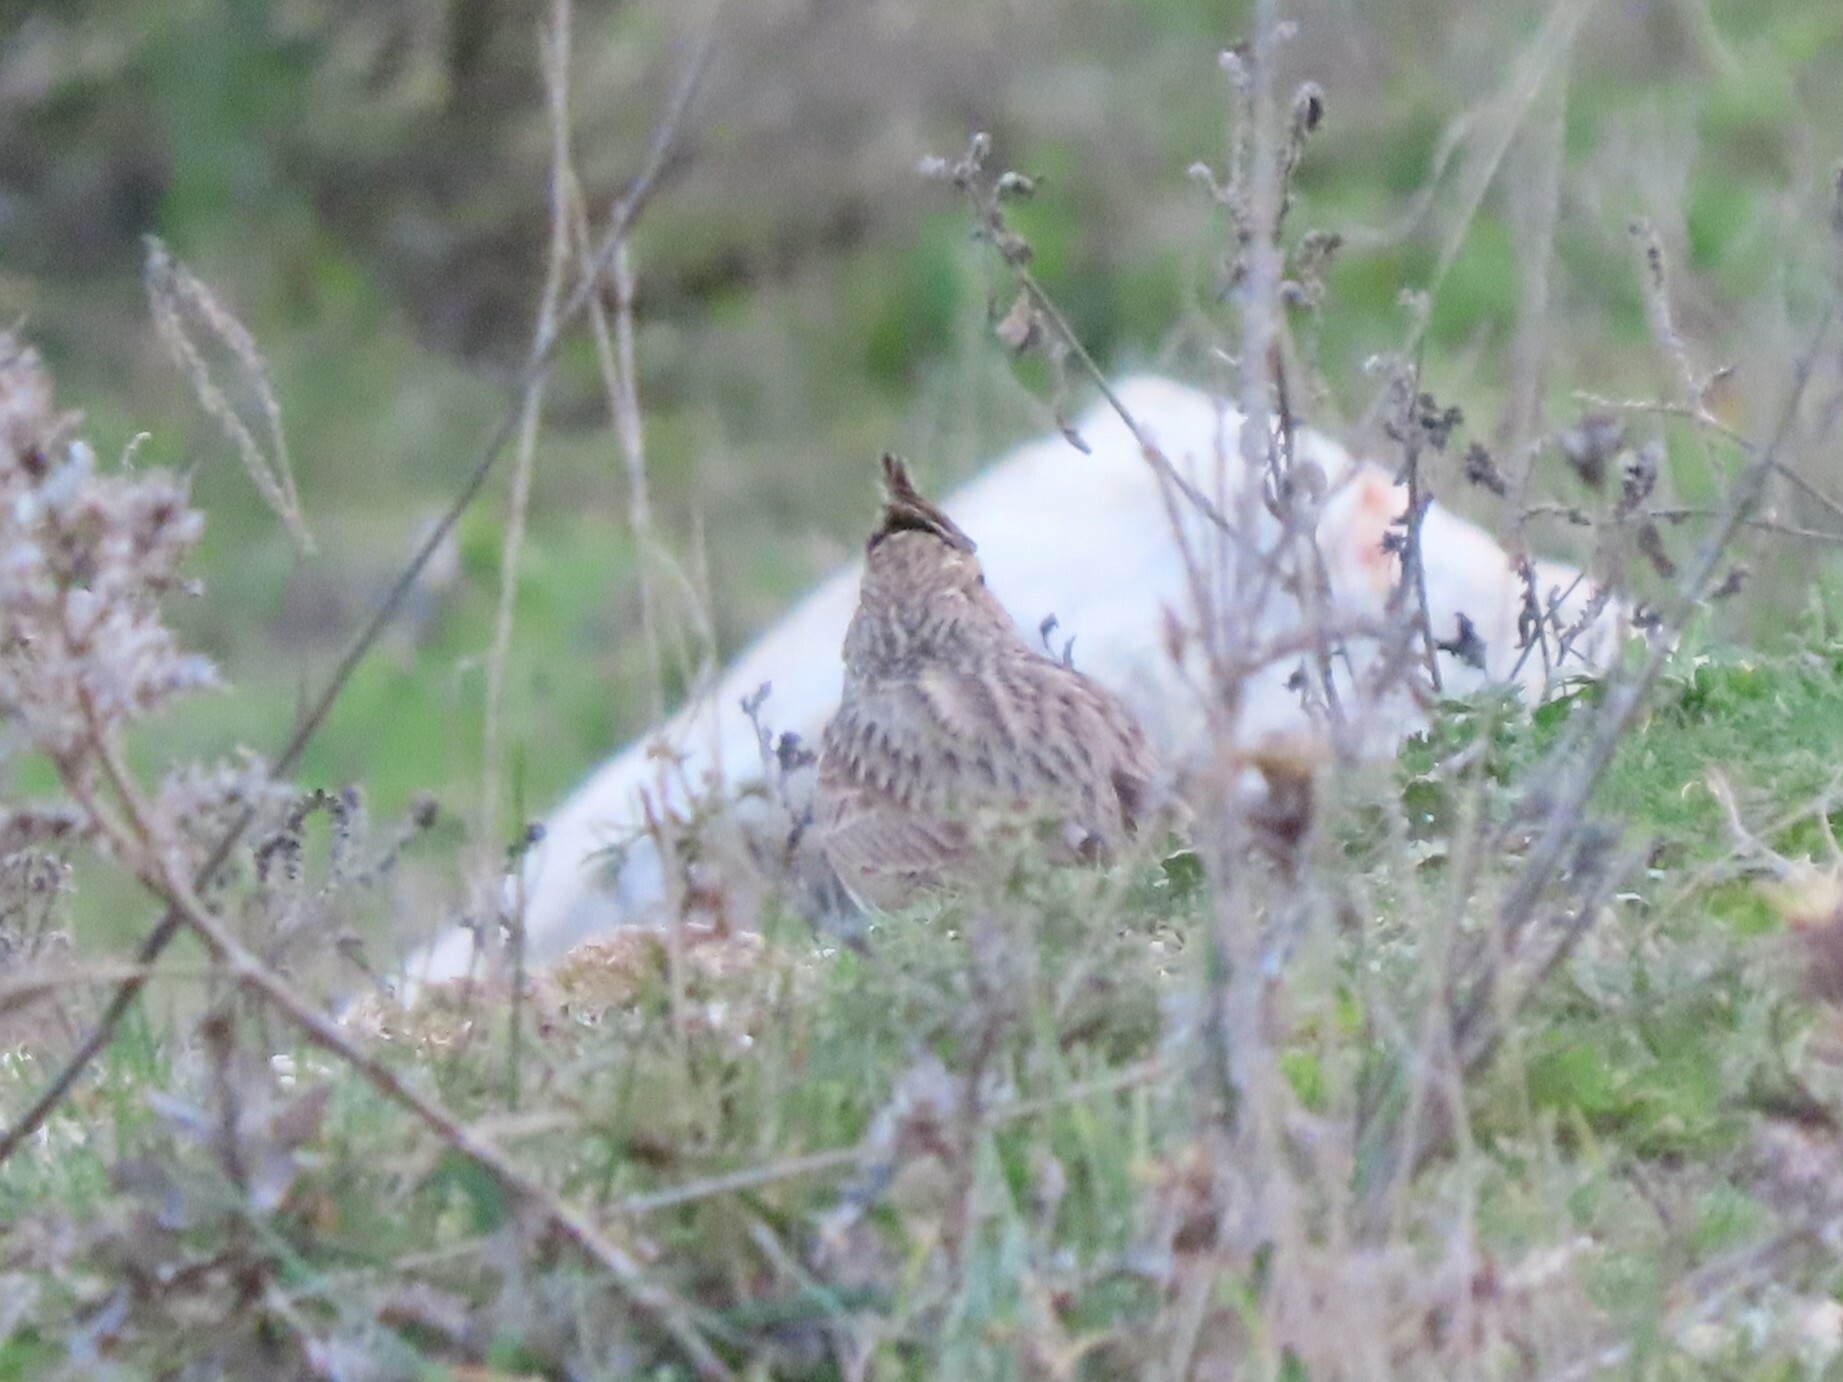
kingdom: Animalia
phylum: Chordata
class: Aves
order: Passeriformes
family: Alaudidae
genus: Galerida
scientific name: Galerida theklae
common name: Thekla lark
